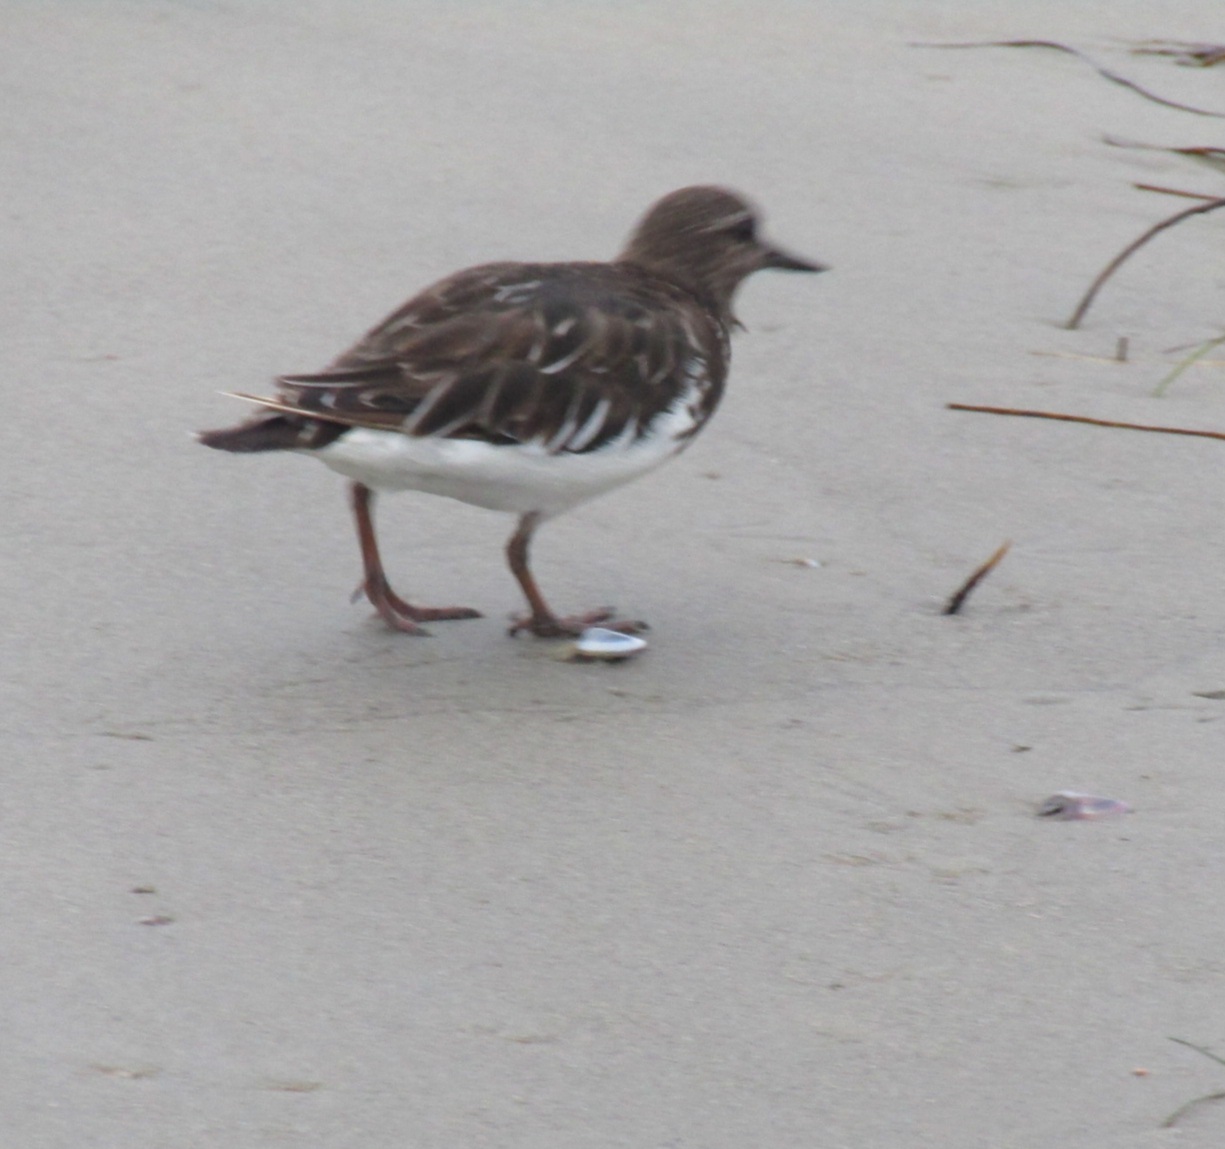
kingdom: Animalia
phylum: Chordata
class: Aves
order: Charadriiformes
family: Scolopacidae
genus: Arenaria
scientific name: Arenaria melanocephala
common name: Black turnstone
